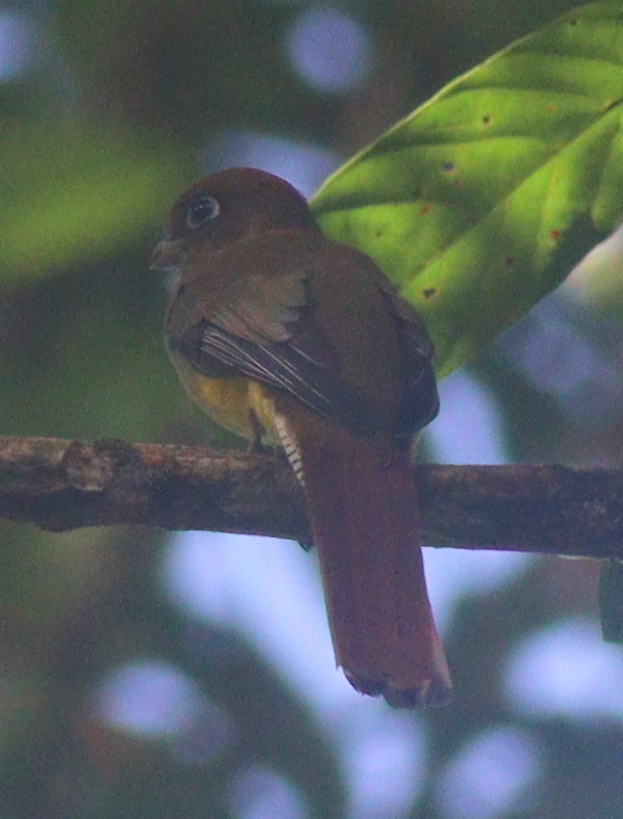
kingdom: Animalia
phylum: Chordata
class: Aves
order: Trogoniformes
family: Trogonidae
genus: Trogon
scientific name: Trogon rufus
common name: Black-throated trogon
